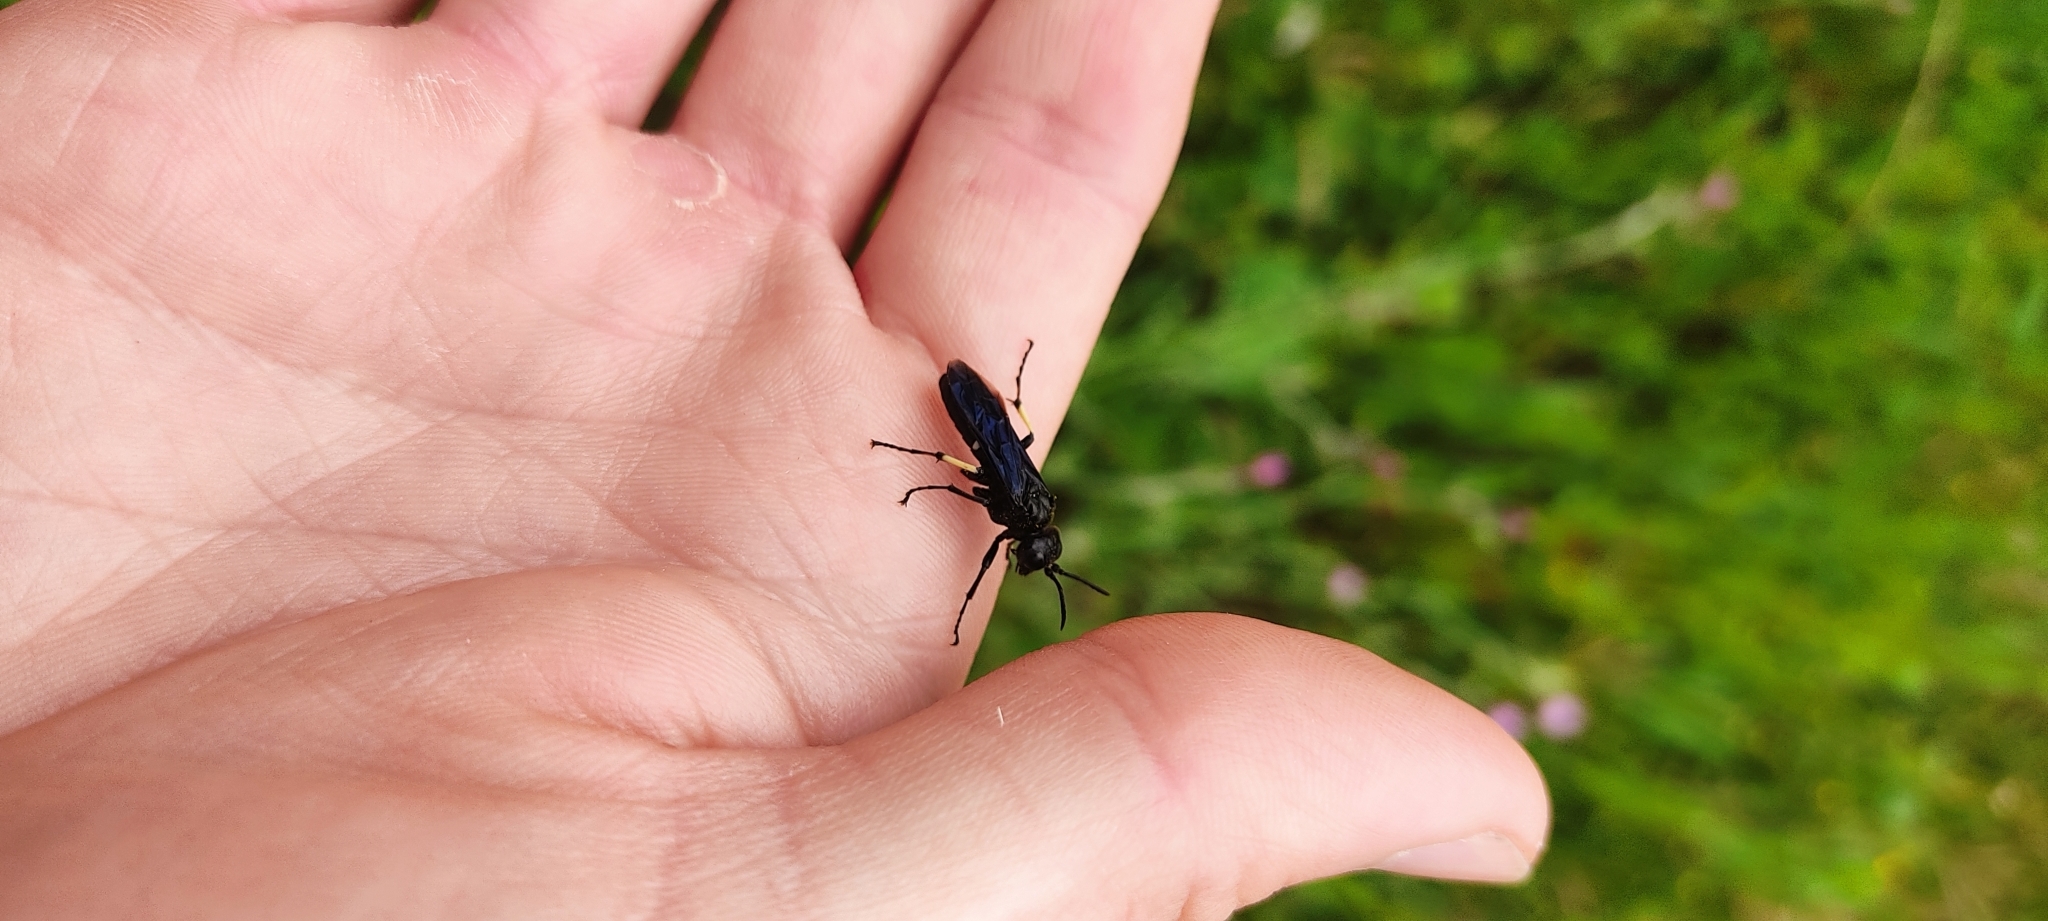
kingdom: Animalia
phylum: Arthropoda
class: Insecta
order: Hymenoptera
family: Tenthredinidae
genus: Tenthredo
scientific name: Tenthredo bifasciata
